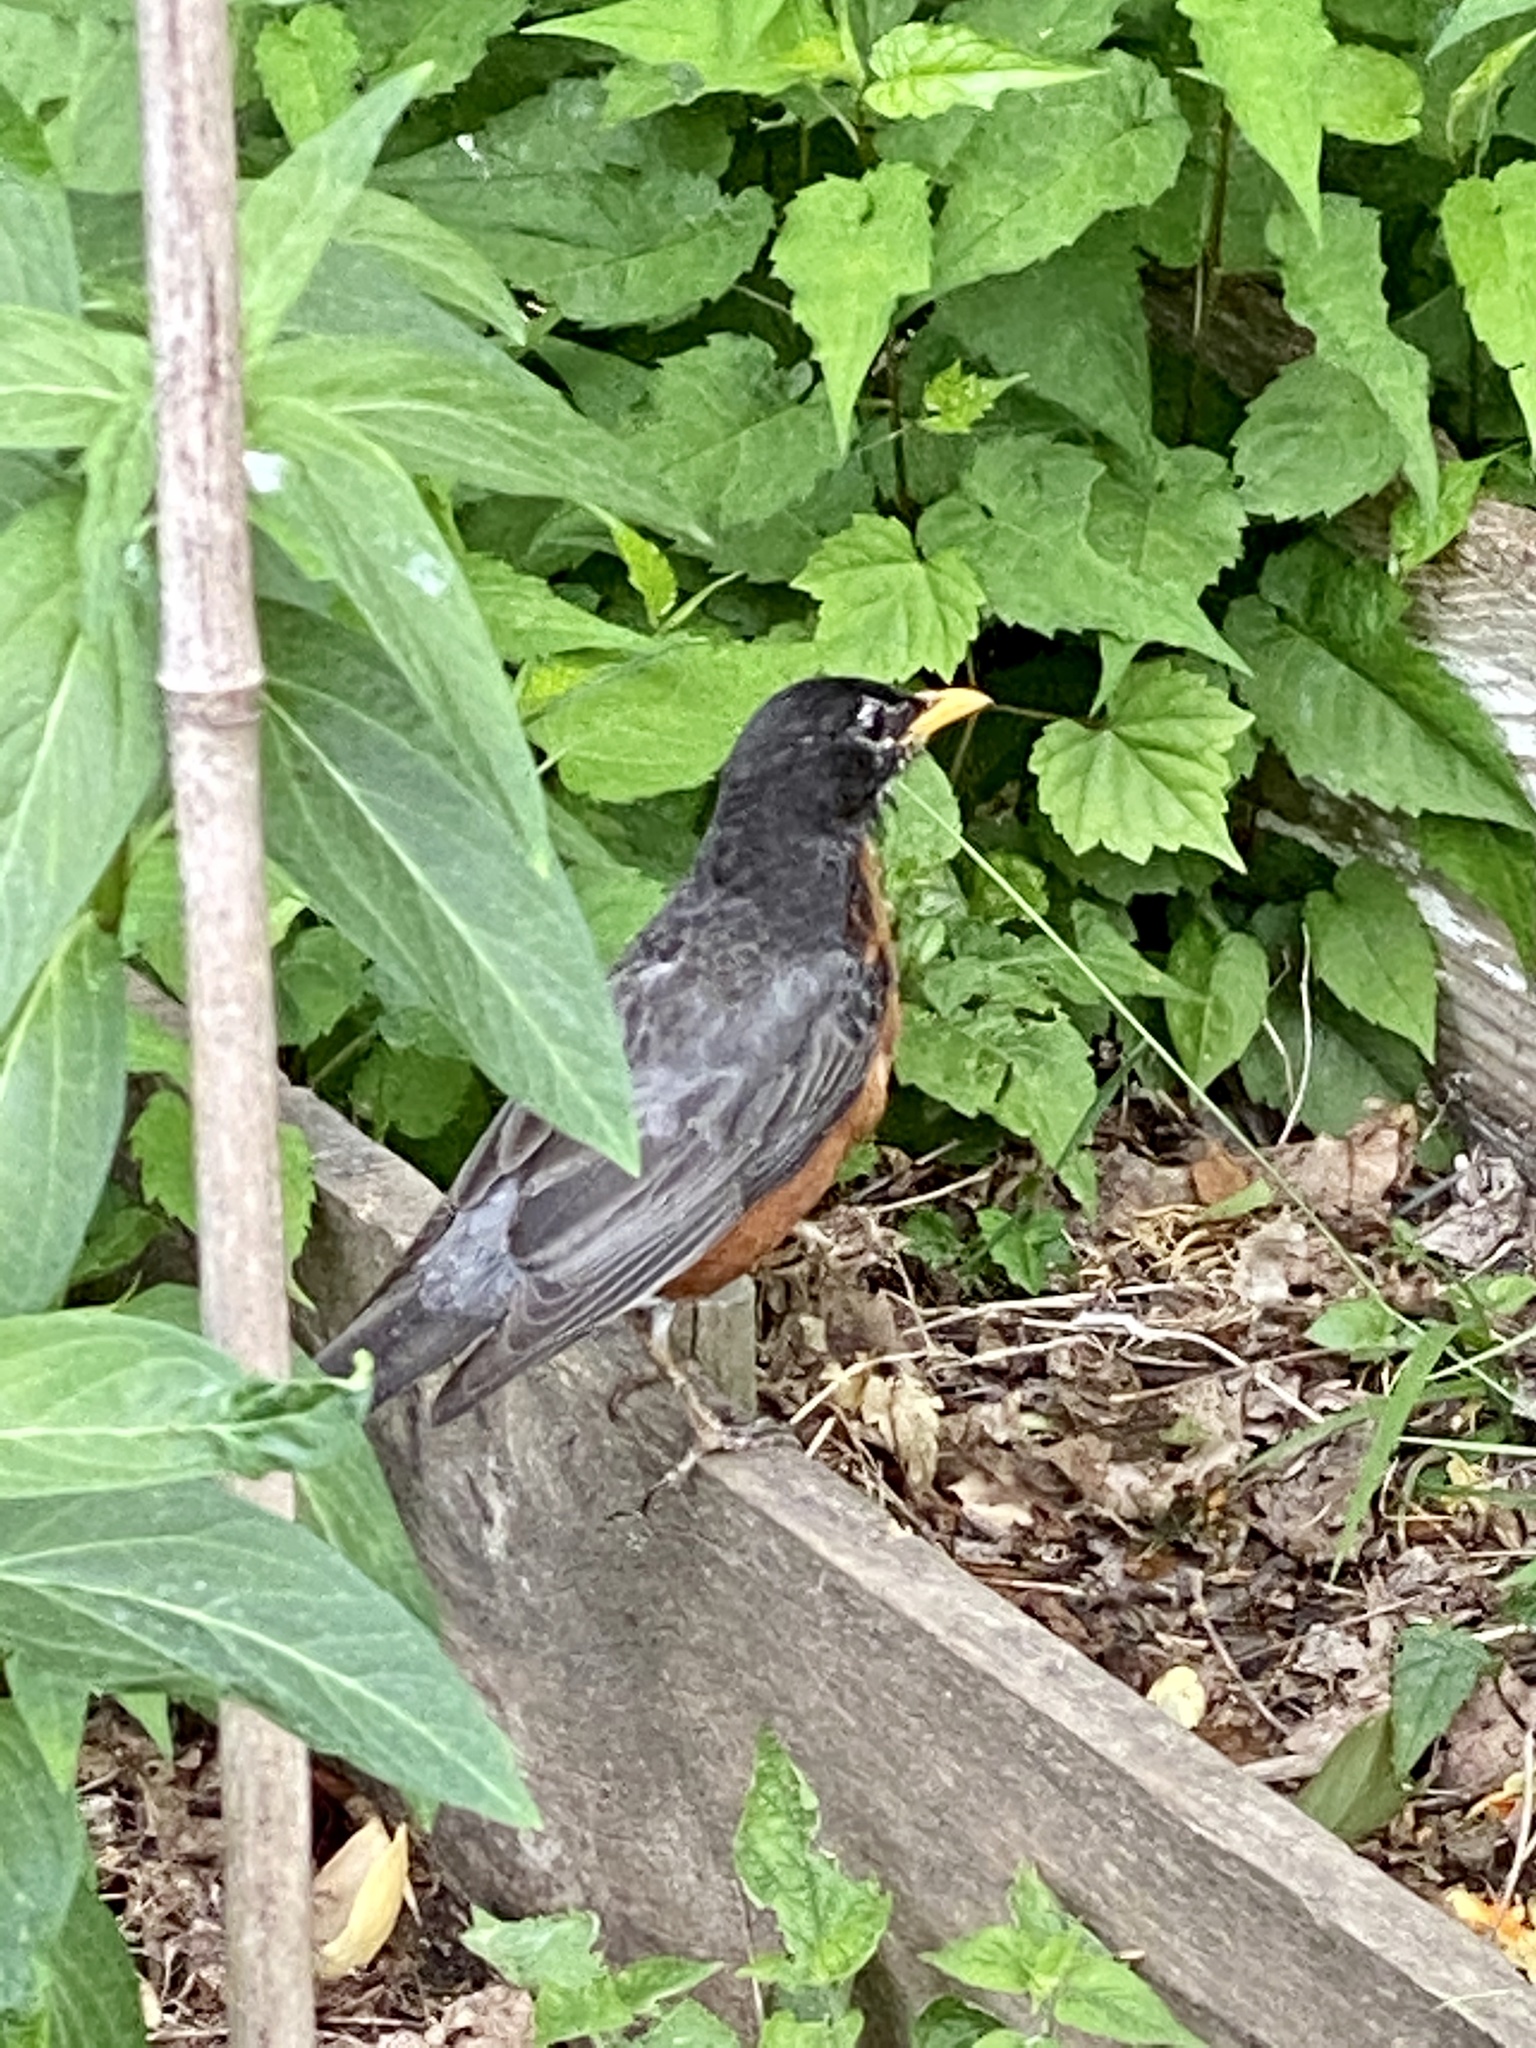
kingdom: Animalia
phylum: Chordata
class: Aves
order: Passeriformes
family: Turdidae
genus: Turdus
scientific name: Turdus migratorius
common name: American robin
